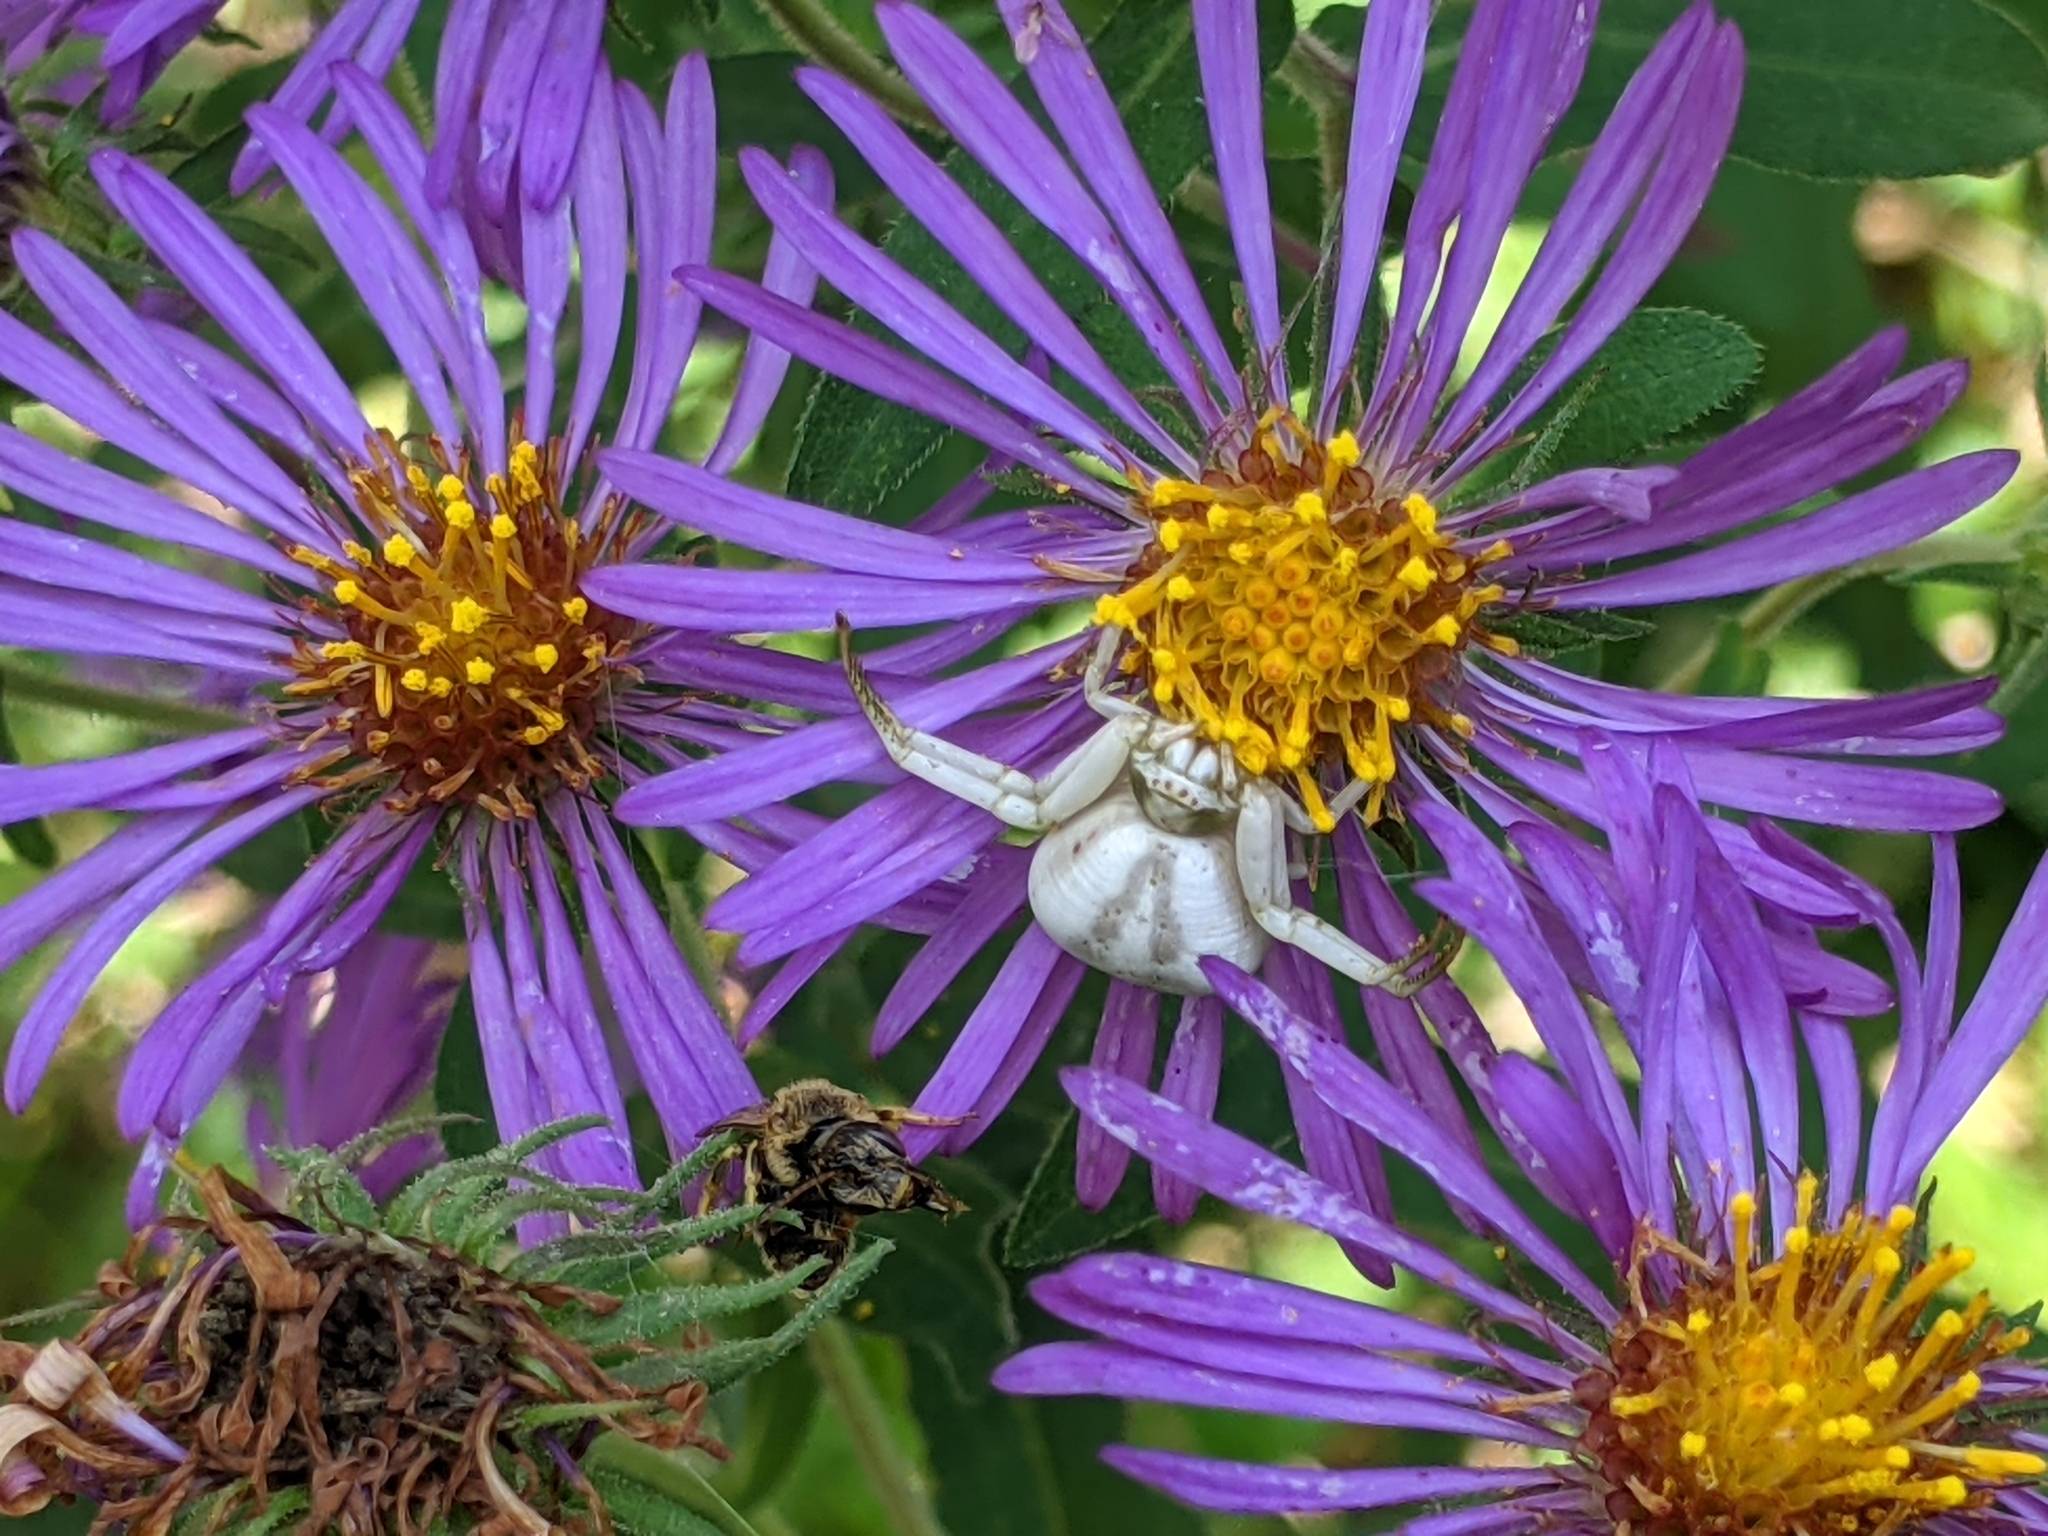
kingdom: Animalia
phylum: Arthropoda
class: Arachnida
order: Araneae
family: Thomisidae
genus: Misumenoides
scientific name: Misumenoides formosipes
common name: White-banded crab spider
